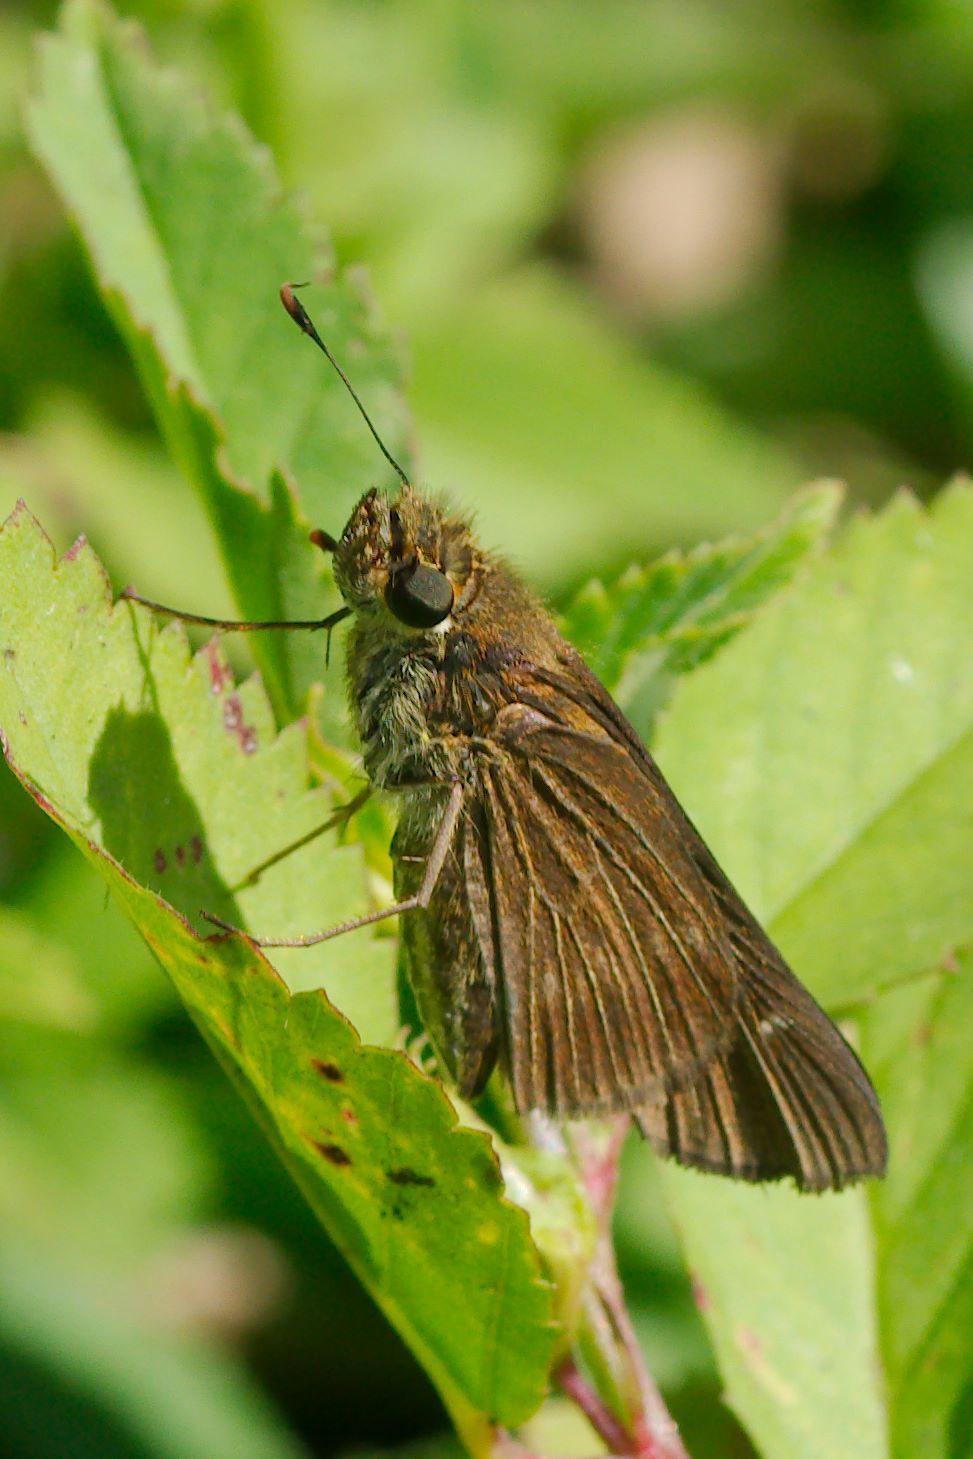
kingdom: Animalia
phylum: Arthropoda
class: Insecta
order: Lepidoptera
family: Hesperiidae
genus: Panoquina
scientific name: Panoquina ocola
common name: Ocola skipper
